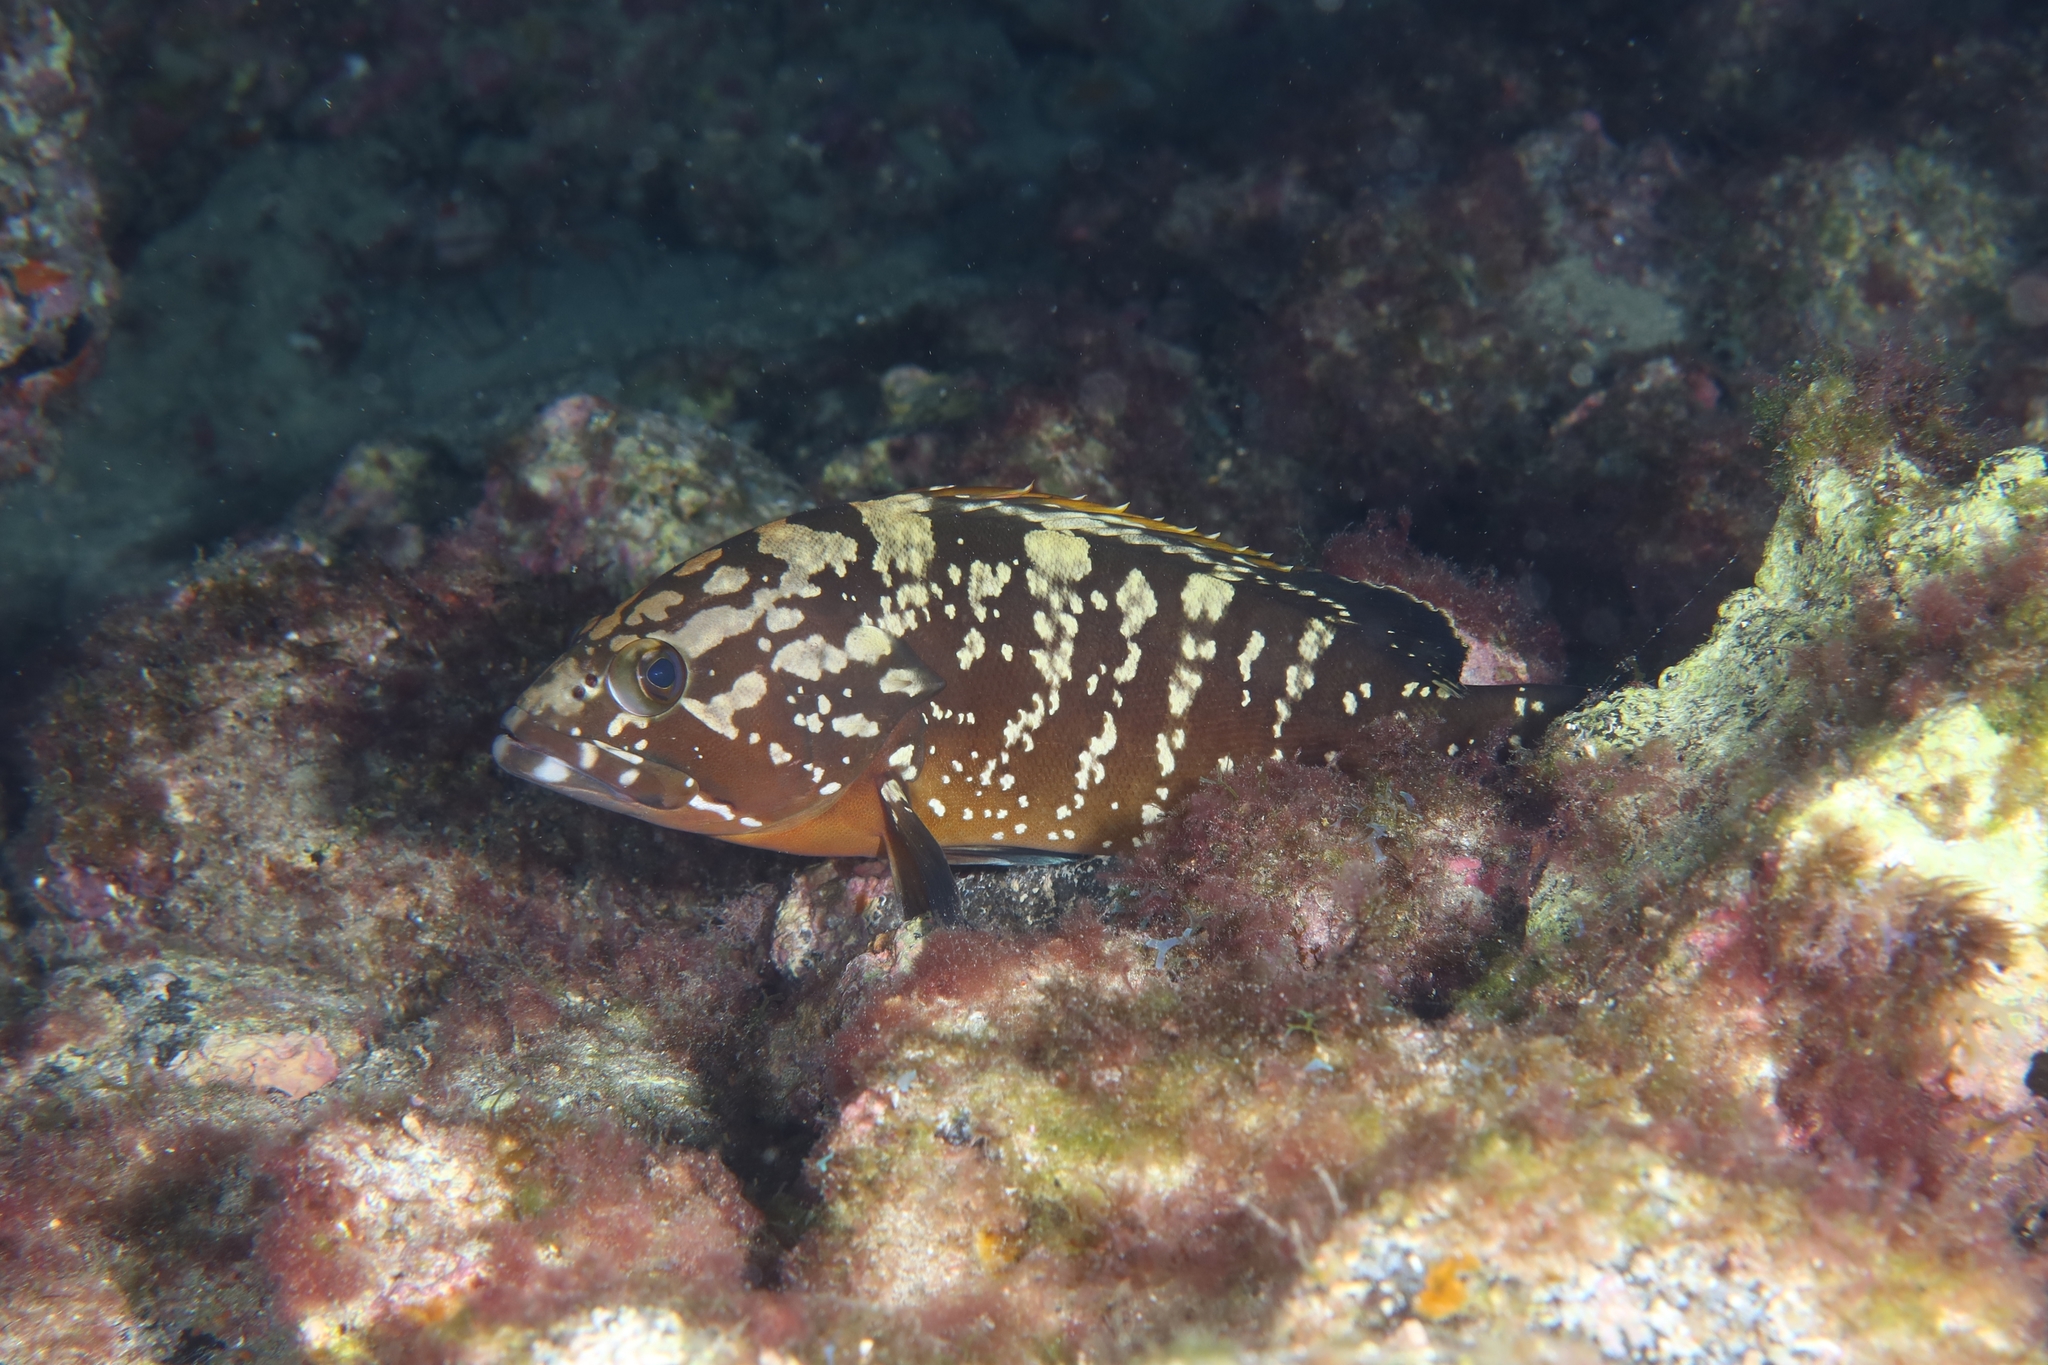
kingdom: Animalia
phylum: Chordata
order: Perciformes
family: Serranidae
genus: Epinephelus
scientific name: Epinephelus marginatus
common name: Dusky grouper
